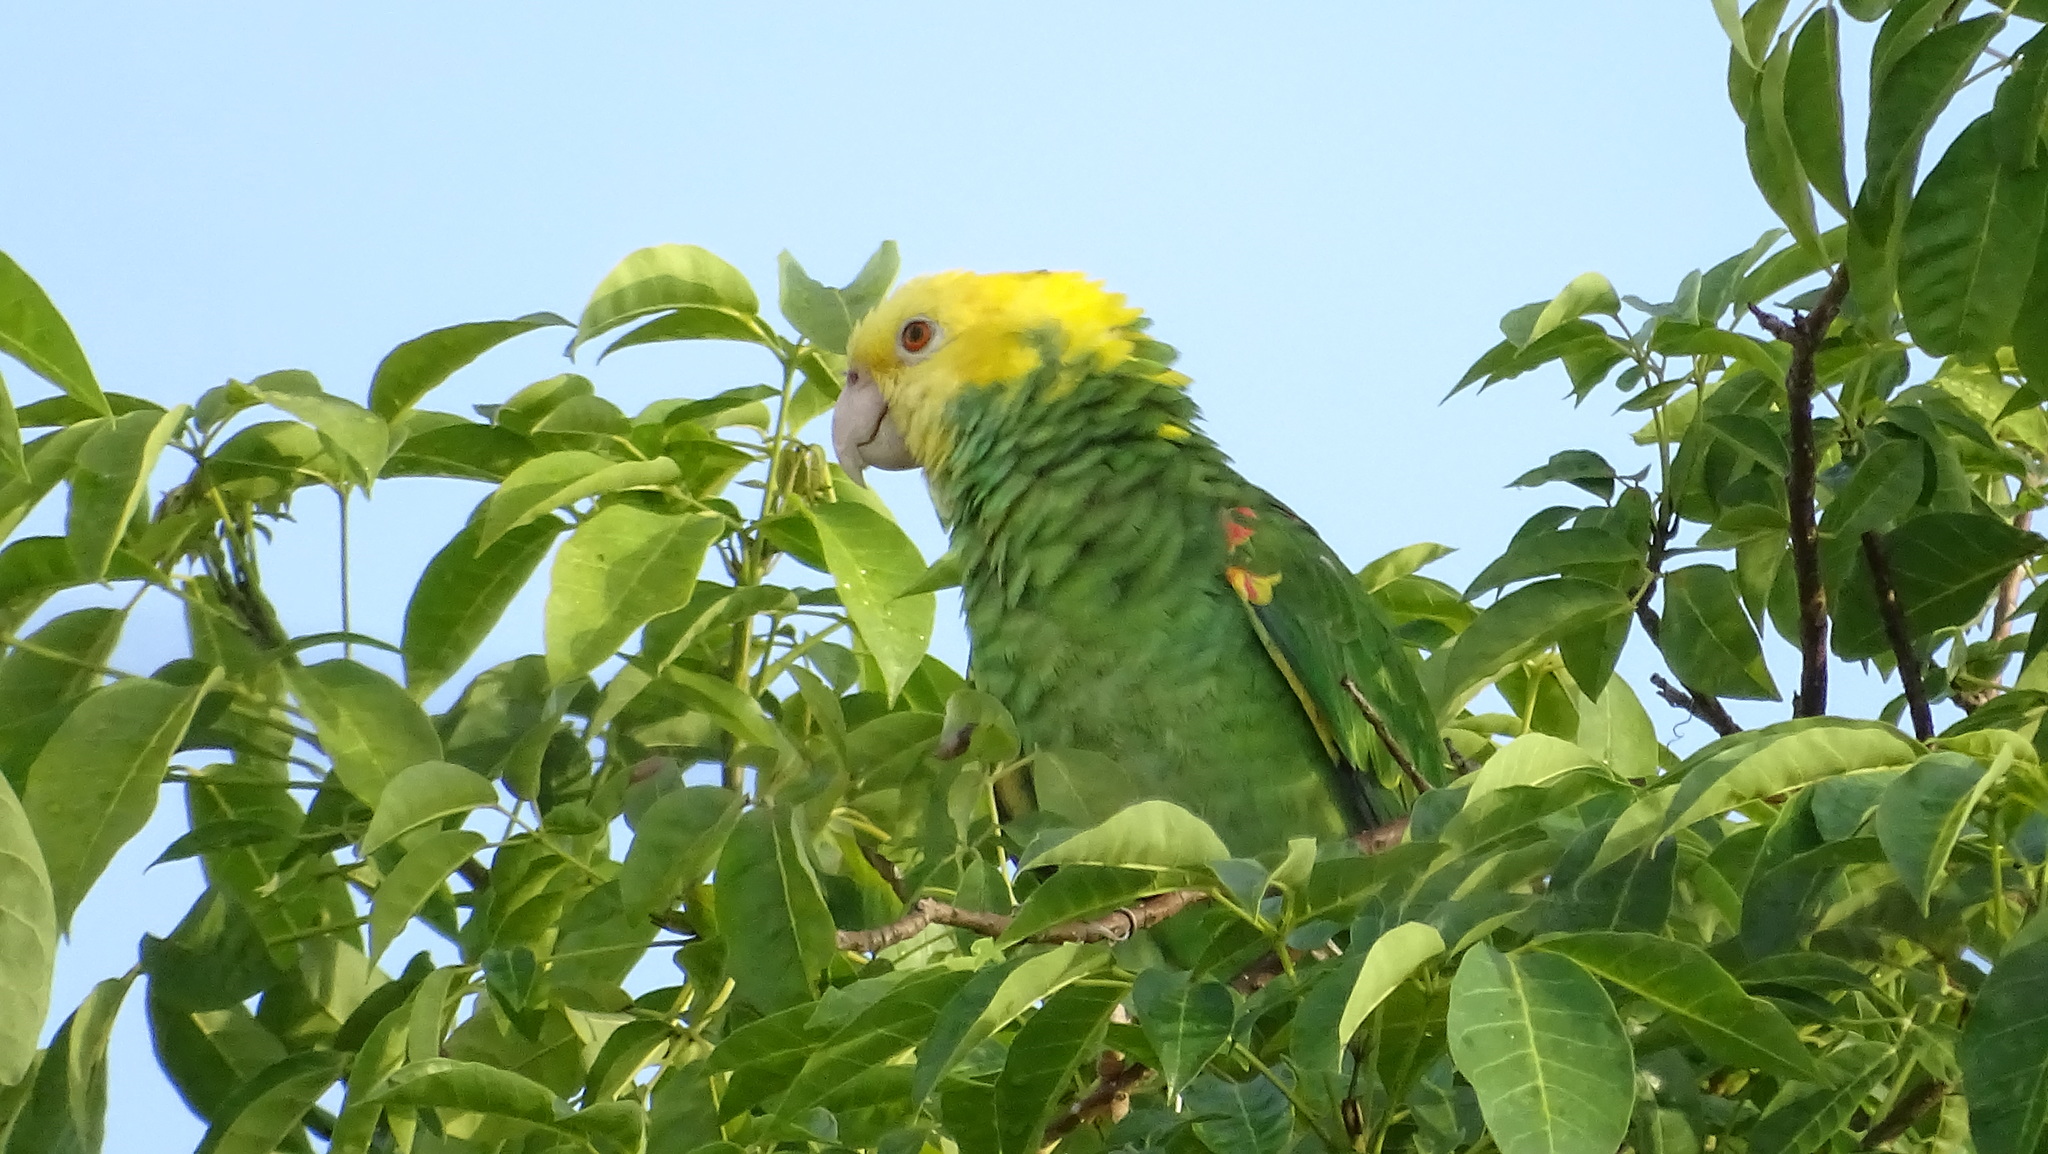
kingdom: Animalia
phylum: Chordata
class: Aves
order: Psittaciformes
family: Psittacidae
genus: Amazona
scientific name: Amazona oratrix
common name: Yellow-headed amazon
